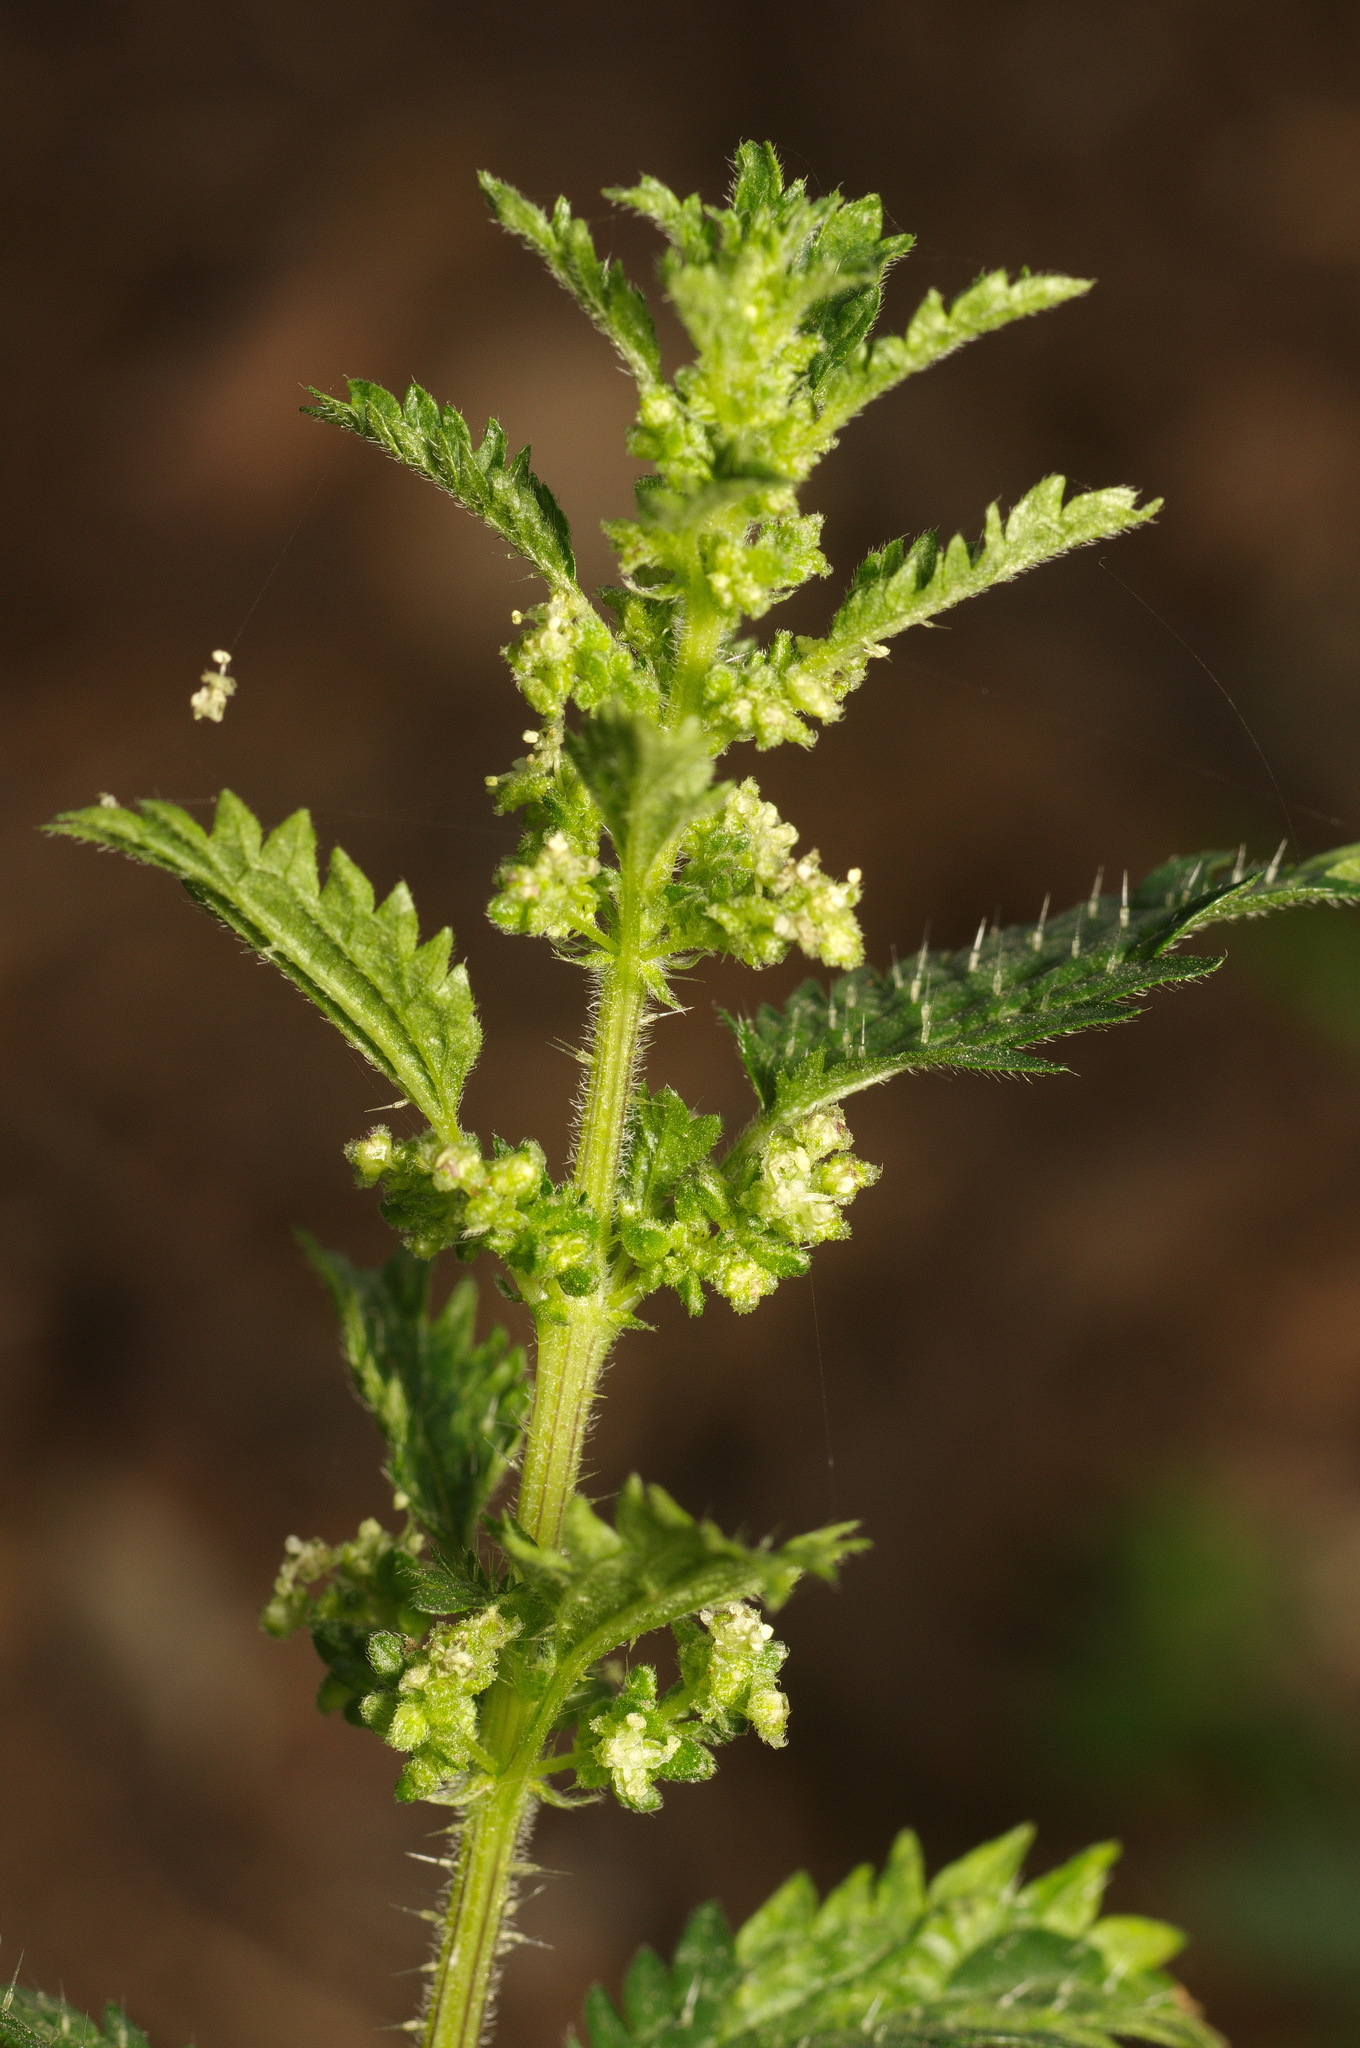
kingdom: Plantae
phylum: Tracheophyta
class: Magnoliopsida
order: Rosales
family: Urticaceae
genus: Urtica
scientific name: Urtica urens
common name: Dwarf nettle
